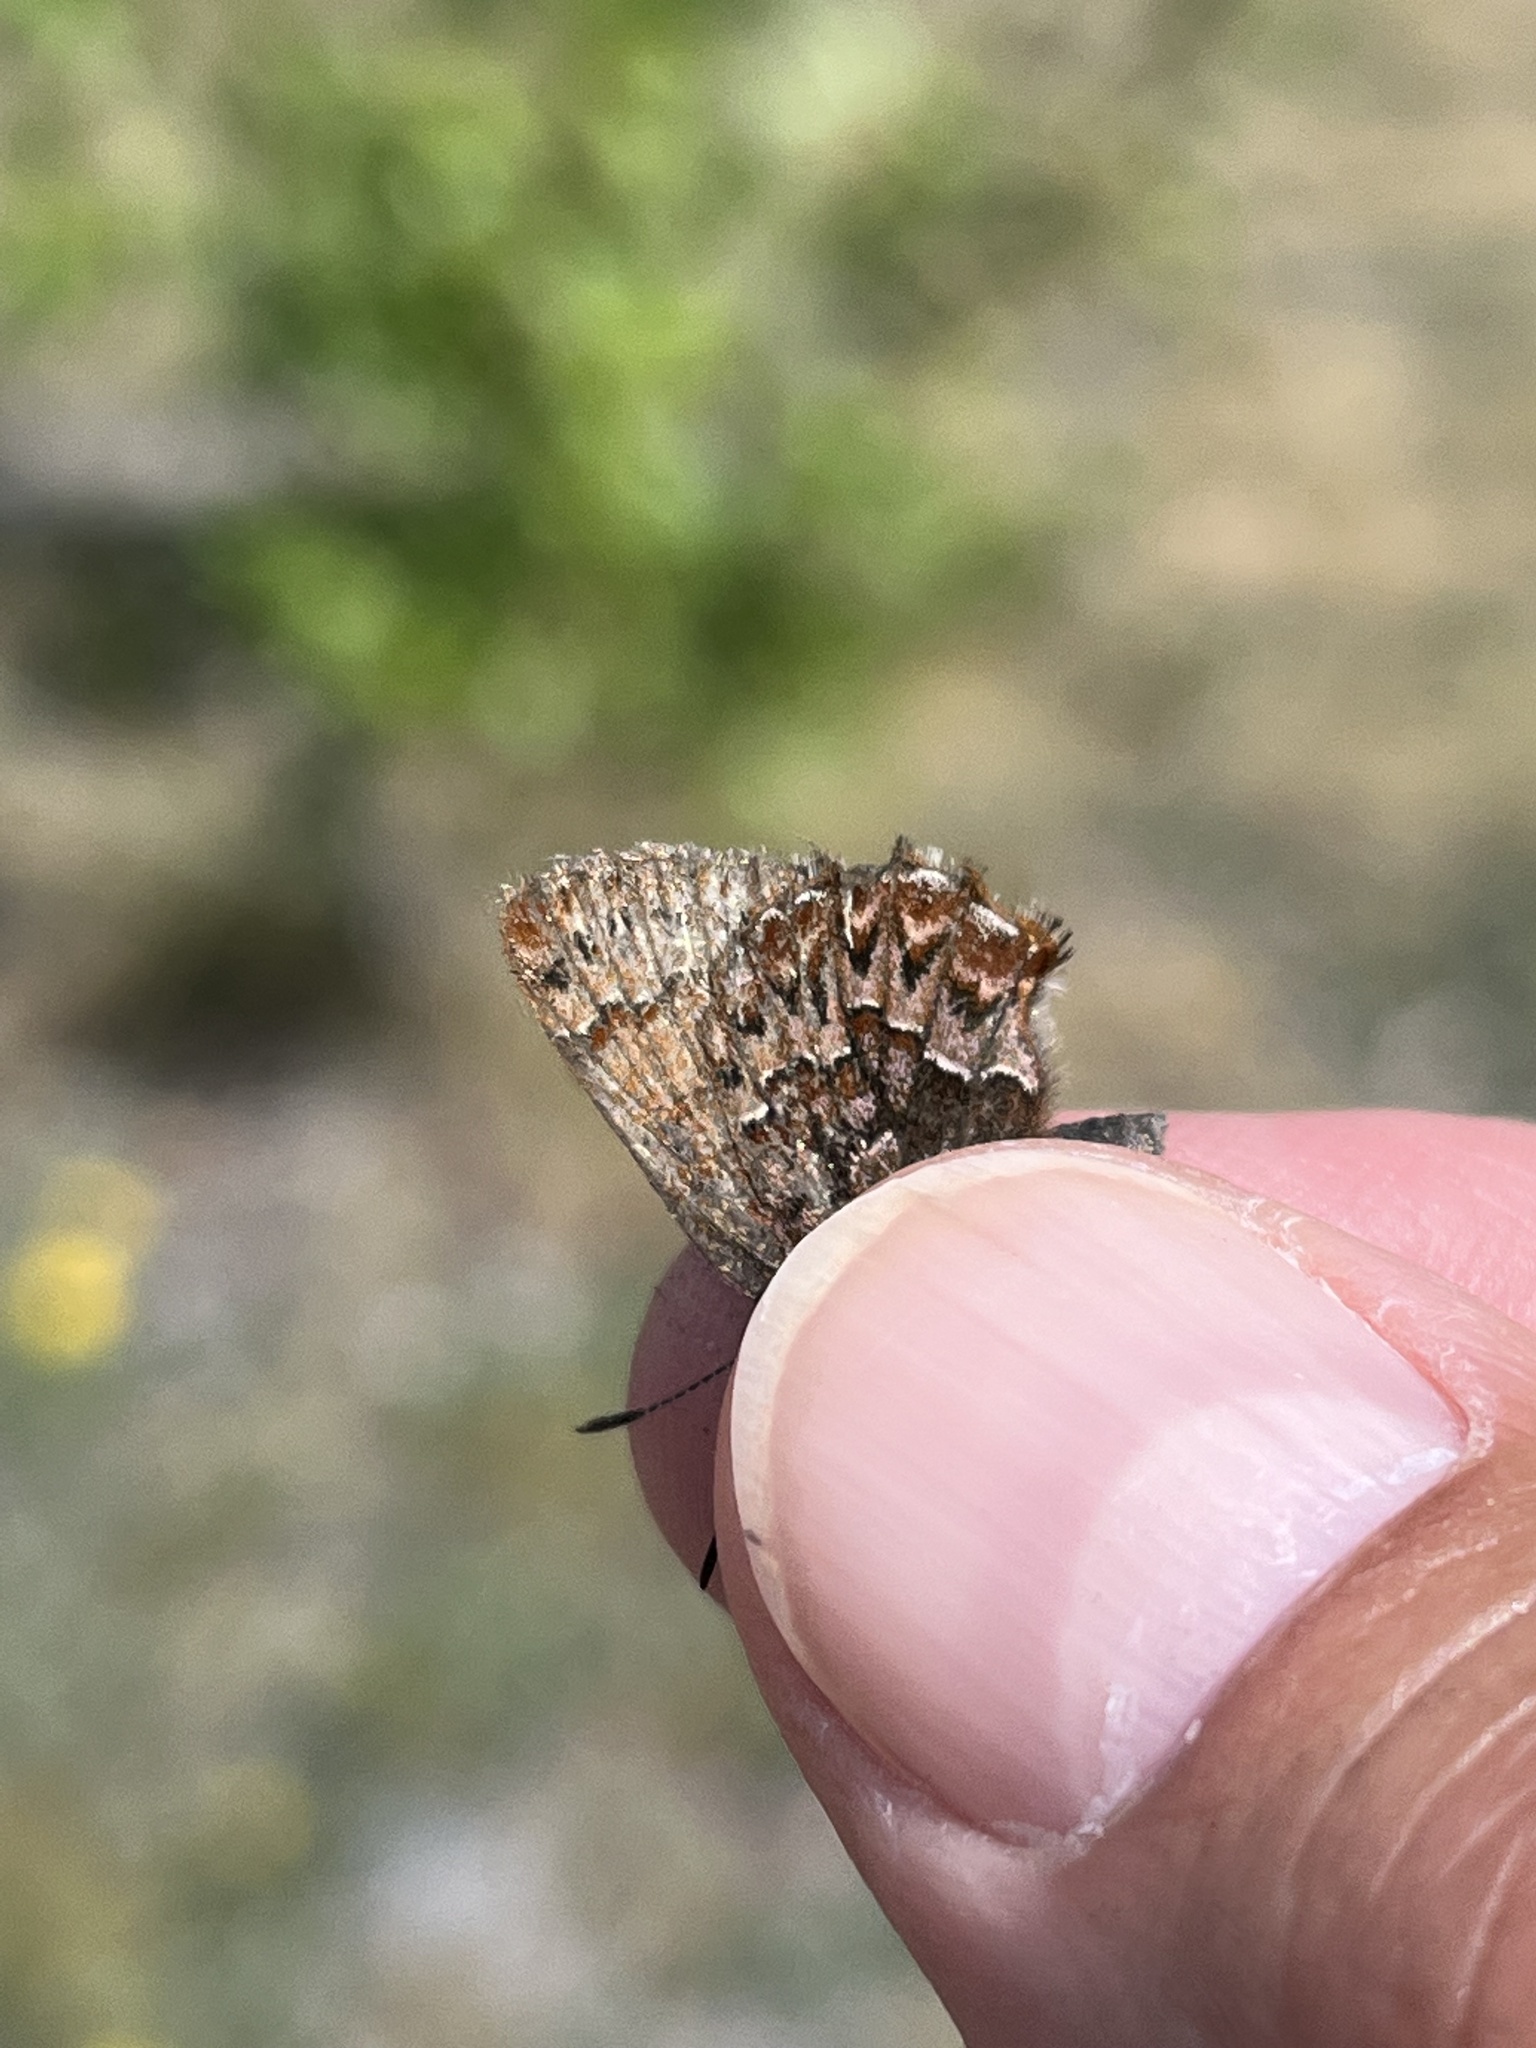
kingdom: Animalia
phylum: Arthropoda
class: Insecta
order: Lepidoptera
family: Lycaenidae
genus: Incisalia
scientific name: Incisalia eryphon
